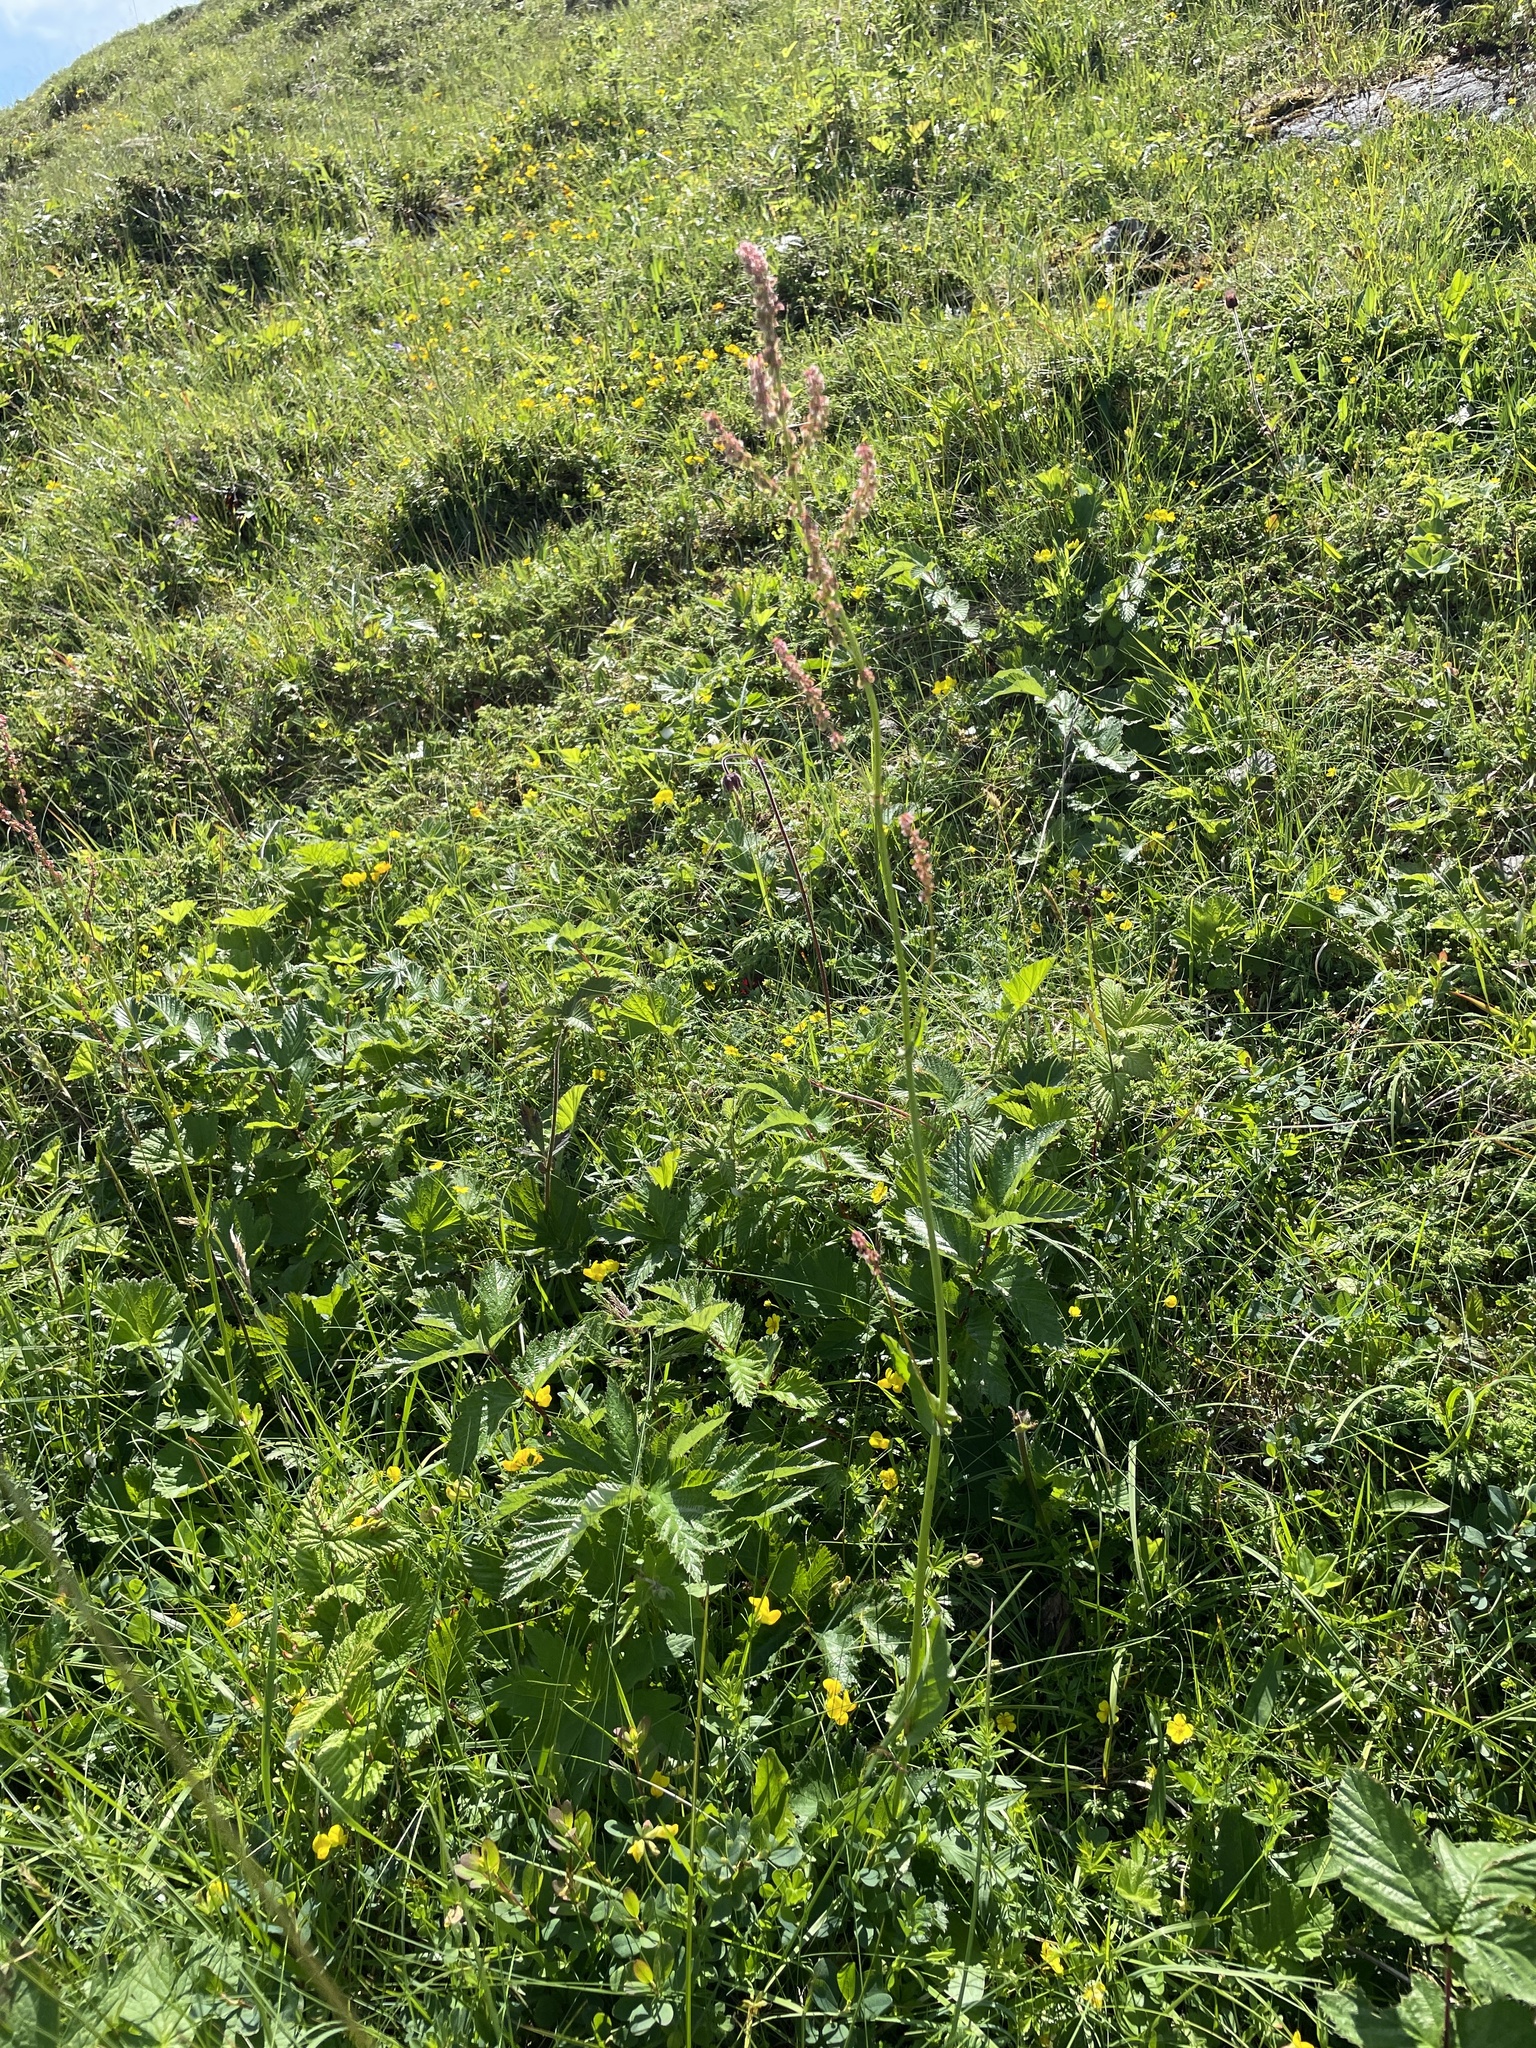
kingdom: Plantae
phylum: Tracheophyta
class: Magnoliopsida
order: Caryophyllales
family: Polygonaceae
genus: Rumex
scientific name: Rumex acetosa
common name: Garden sorrel
